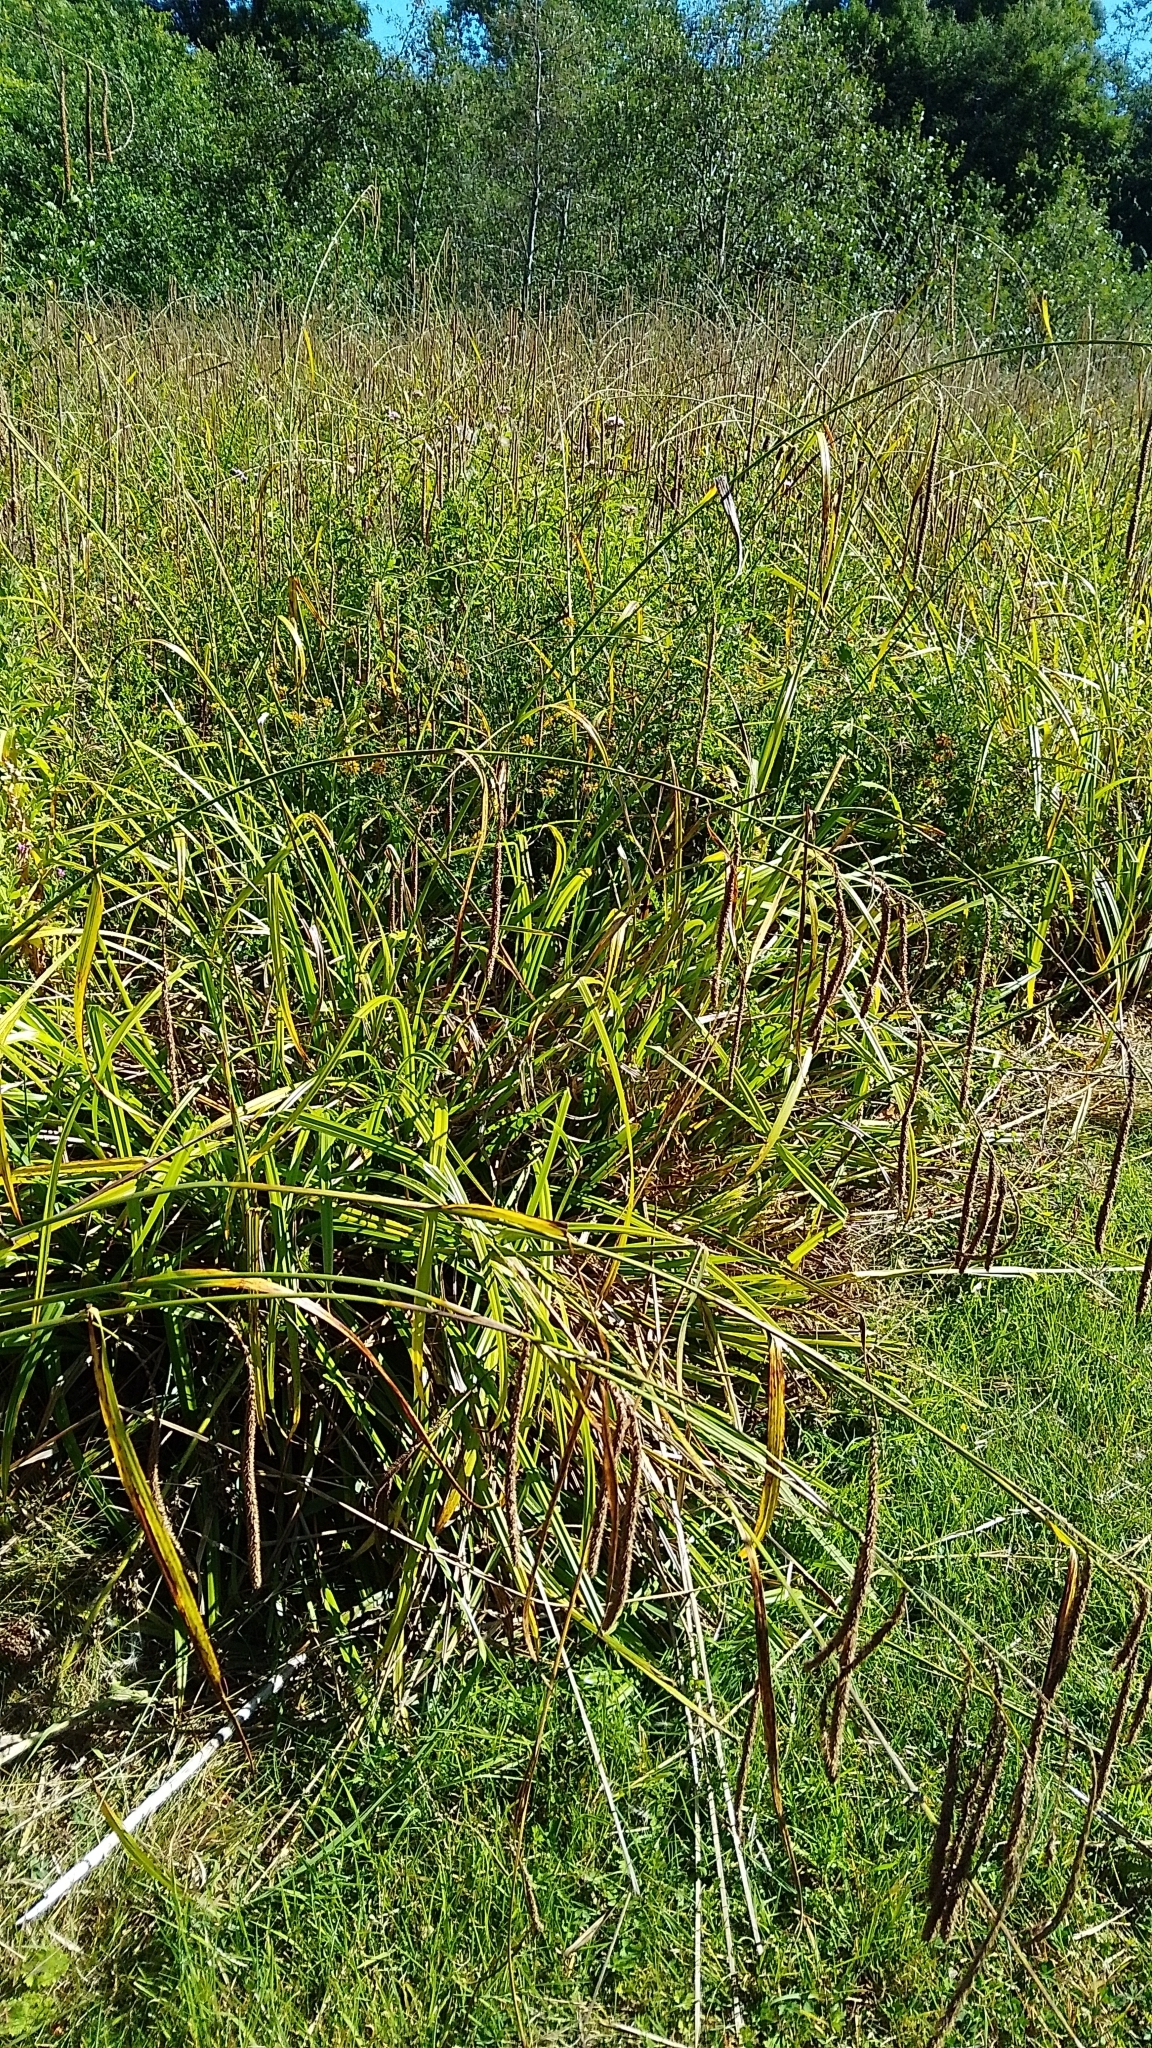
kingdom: Plantae
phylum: Tracheophyta
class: Liliopsida
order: Poales
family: Cyperaceae
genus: Carex
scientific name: Carex pendula
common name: Pendulous sedge
